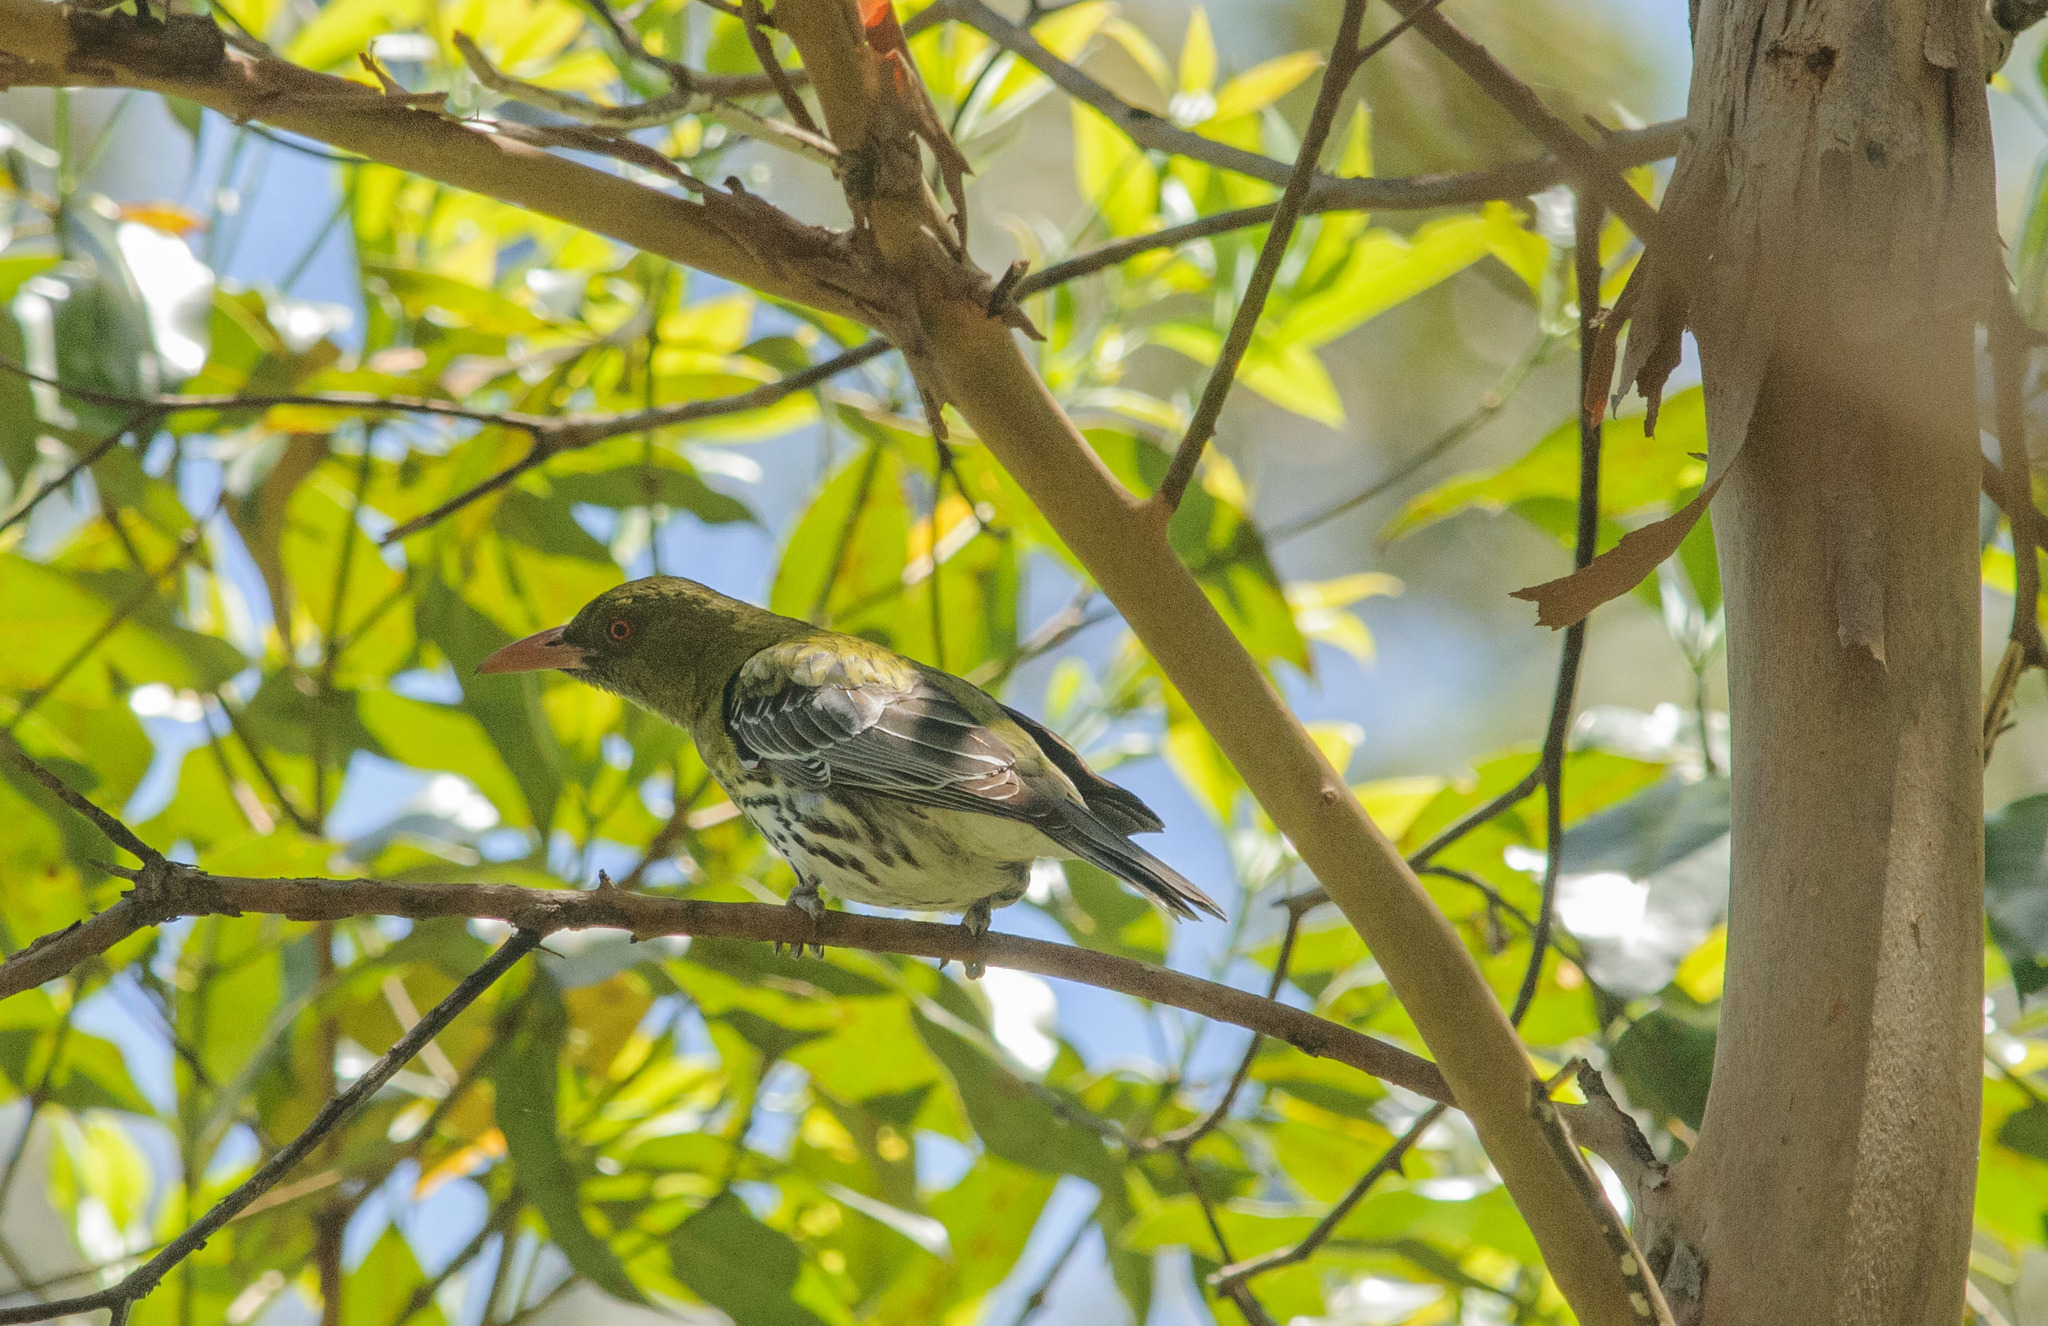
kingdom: Animalia
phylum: Chordata
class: Aves
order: Passeriformes
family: Oriolidae
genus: Oriolus
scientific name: Oriolus sagittatus
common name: Olive-backed oriole
